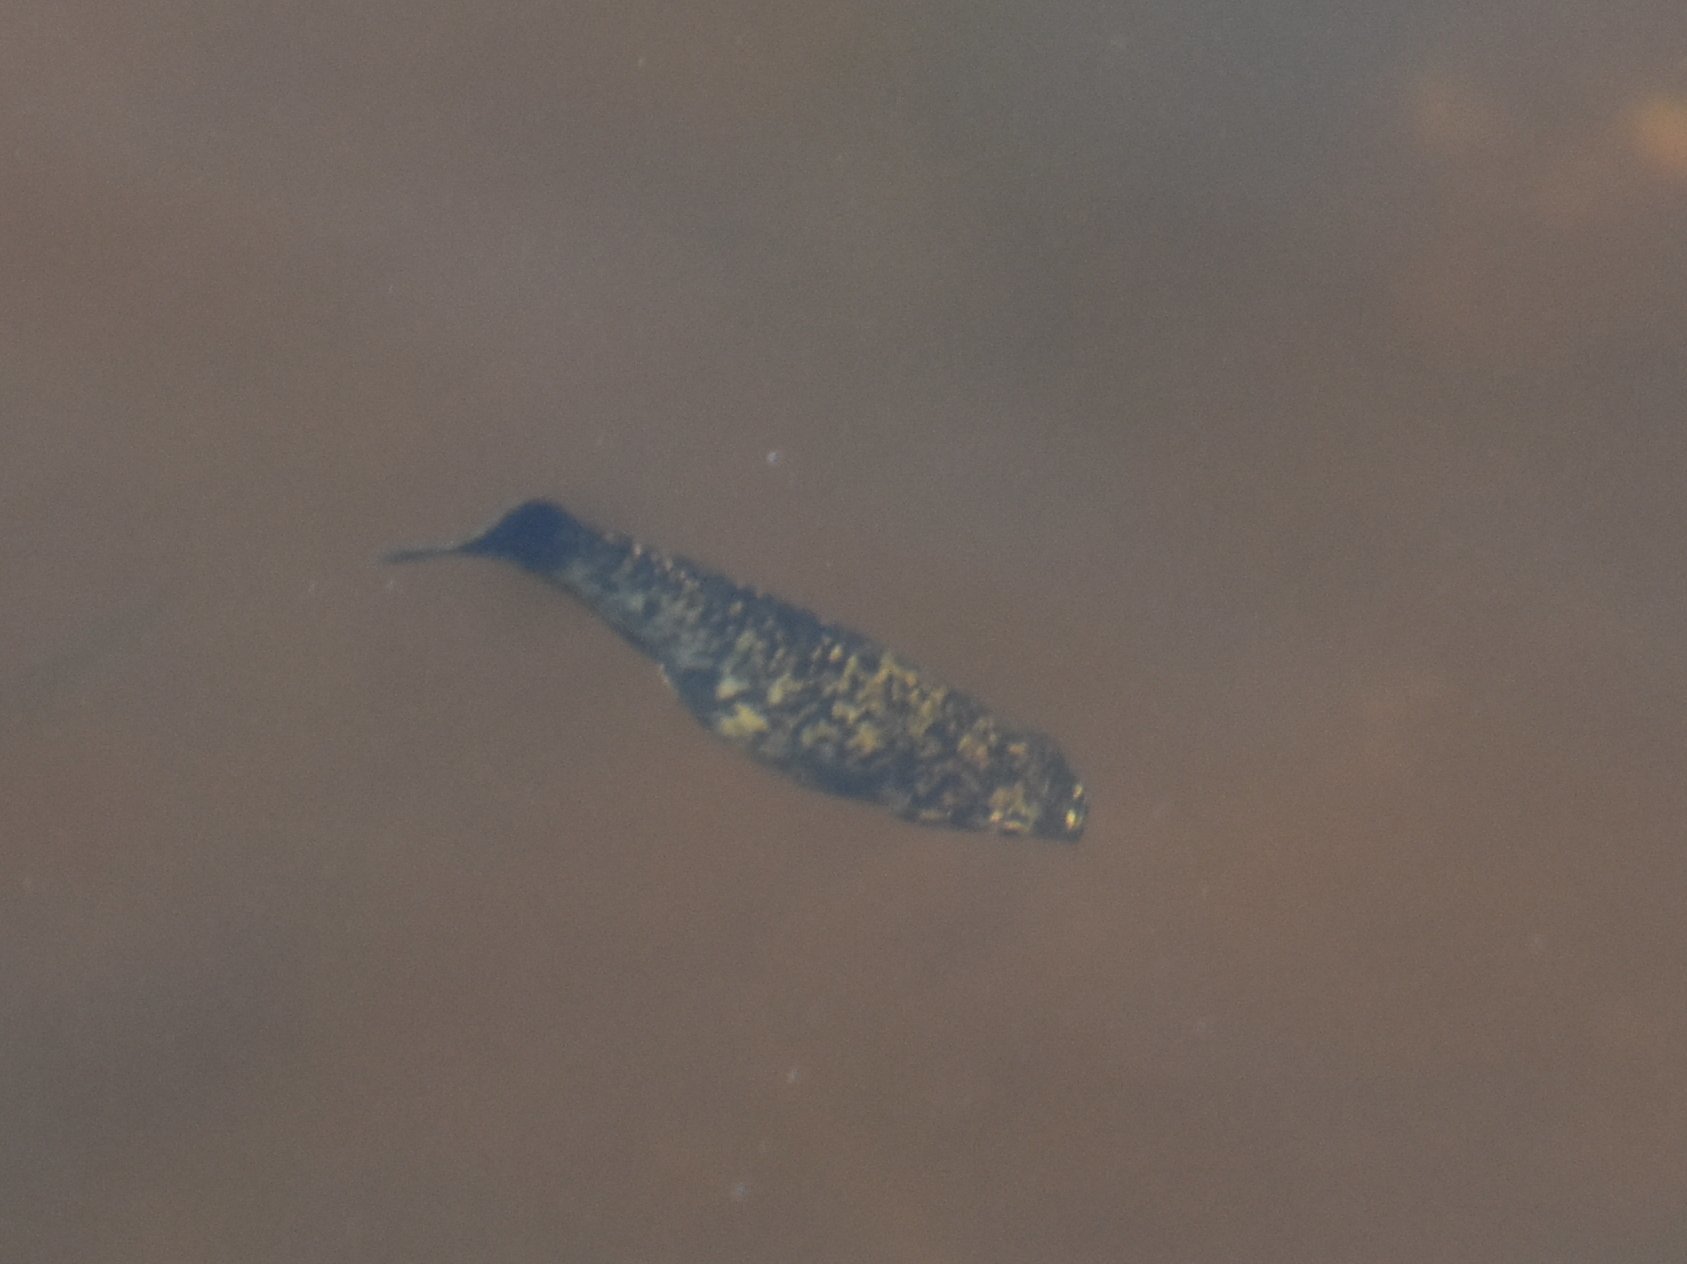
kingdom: Animalia
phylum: Chordata
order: Cyprinodontiformes
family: Poeciliidae
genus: Gambusia
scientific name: Gambusia holbrooki
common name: Eastern mosquitofish
